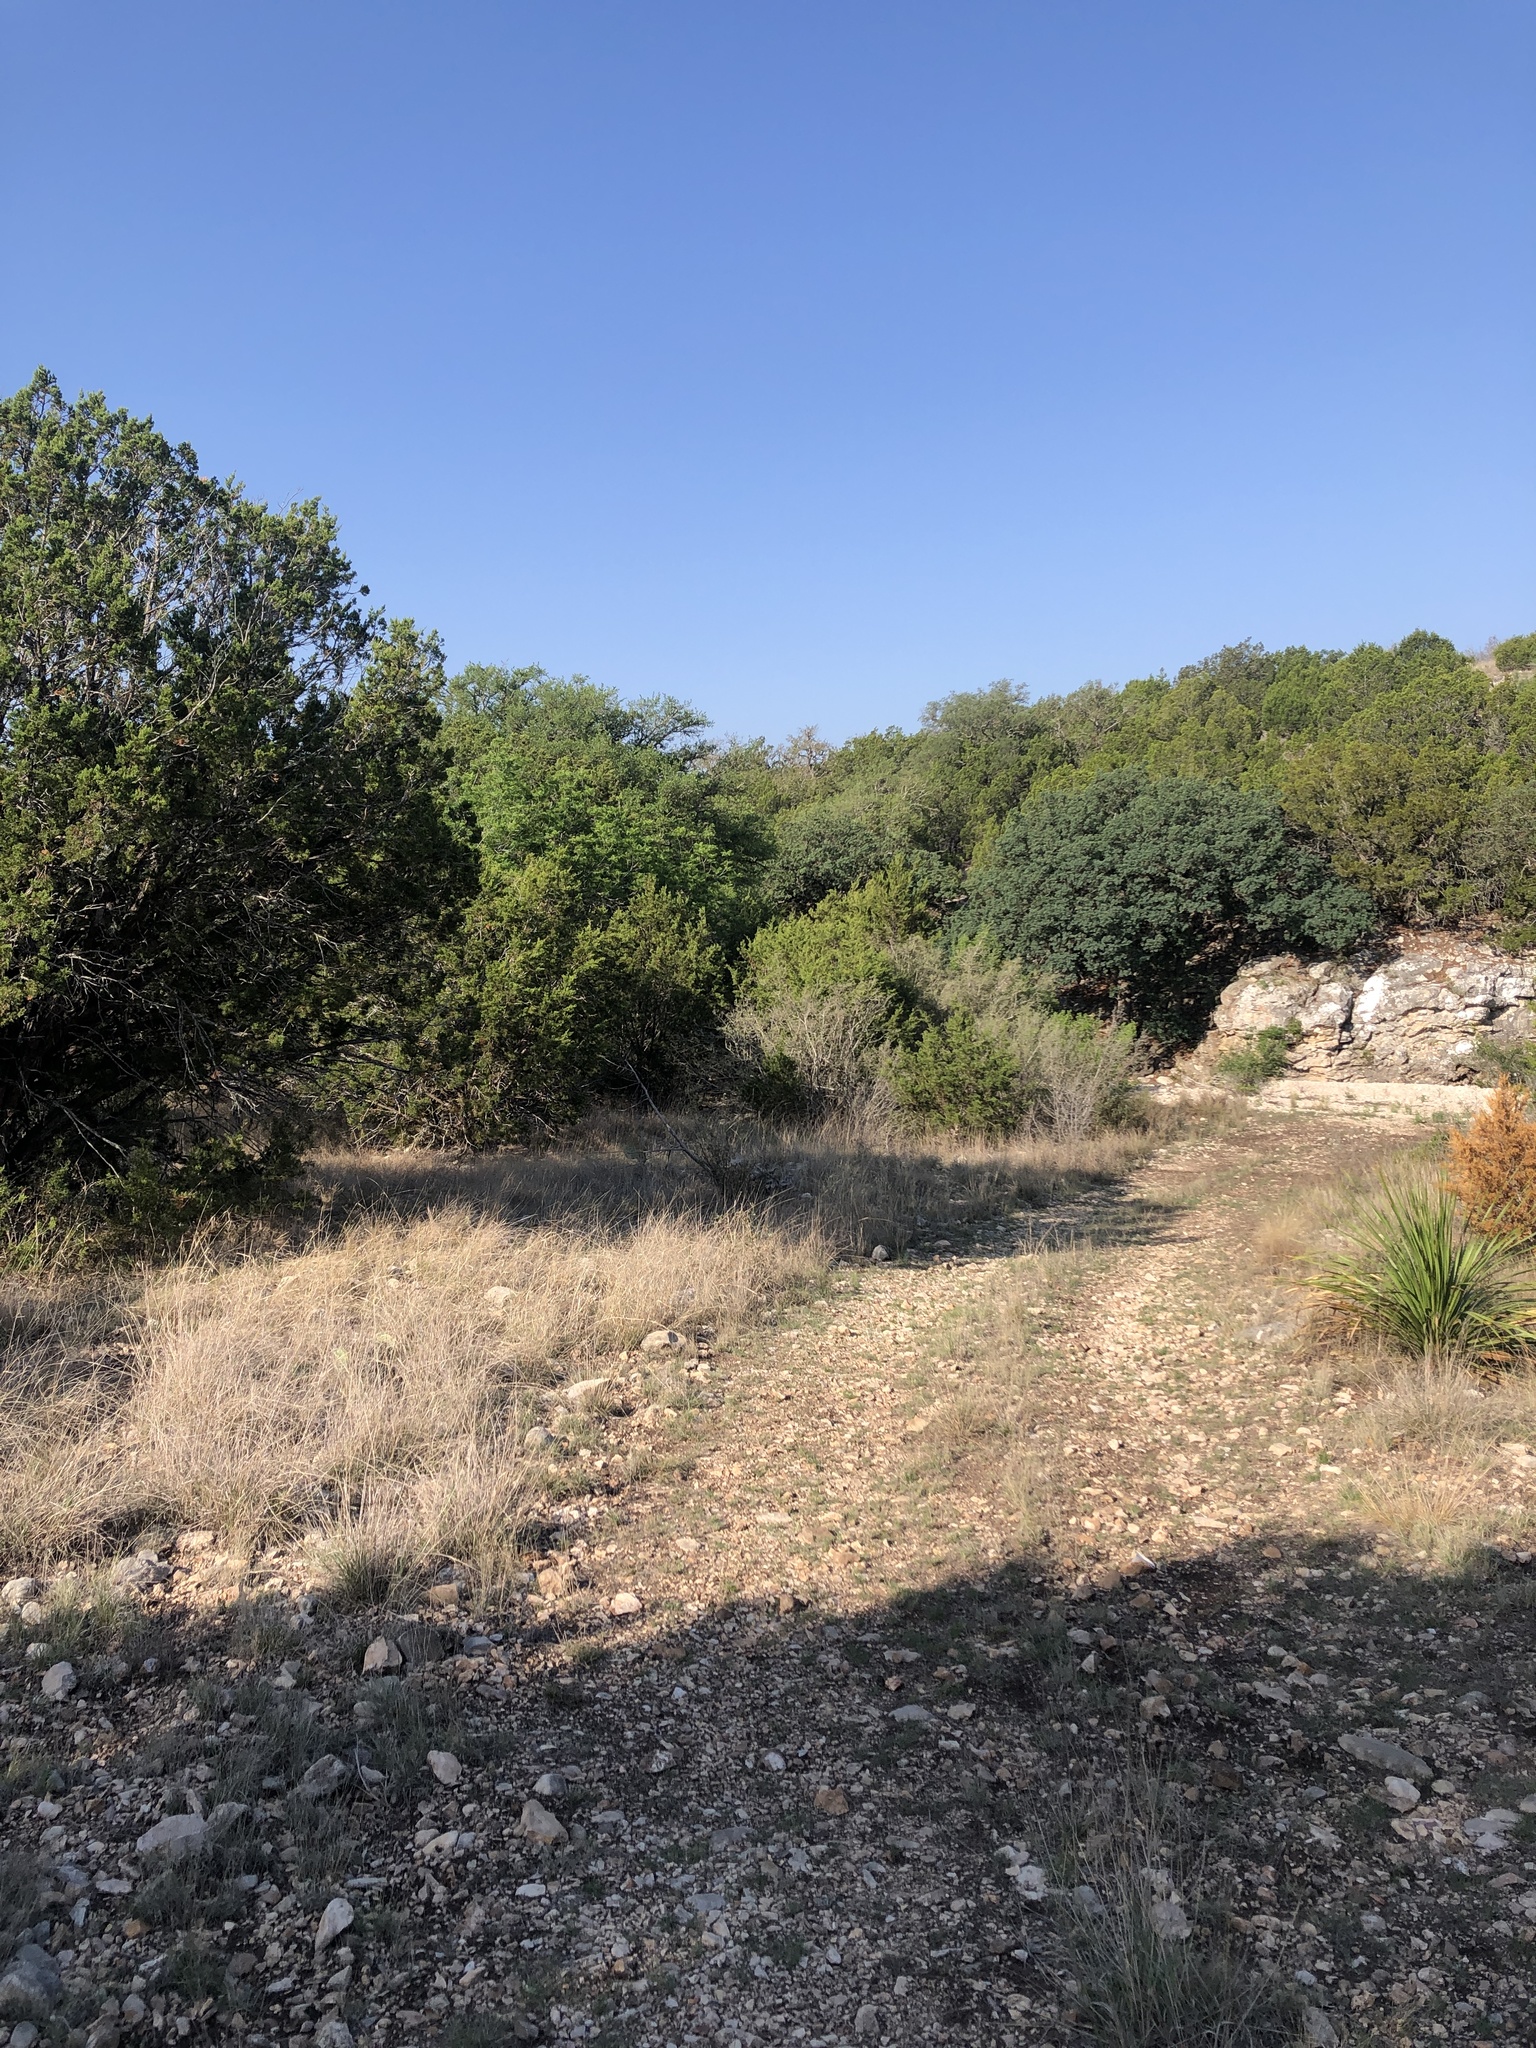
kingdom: Animalia
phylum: Chordata
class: Aves
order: Passeriformes
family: Vireonidae
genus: Vireo
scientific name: Vireo olivaceus
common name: Red-eyed vireo
